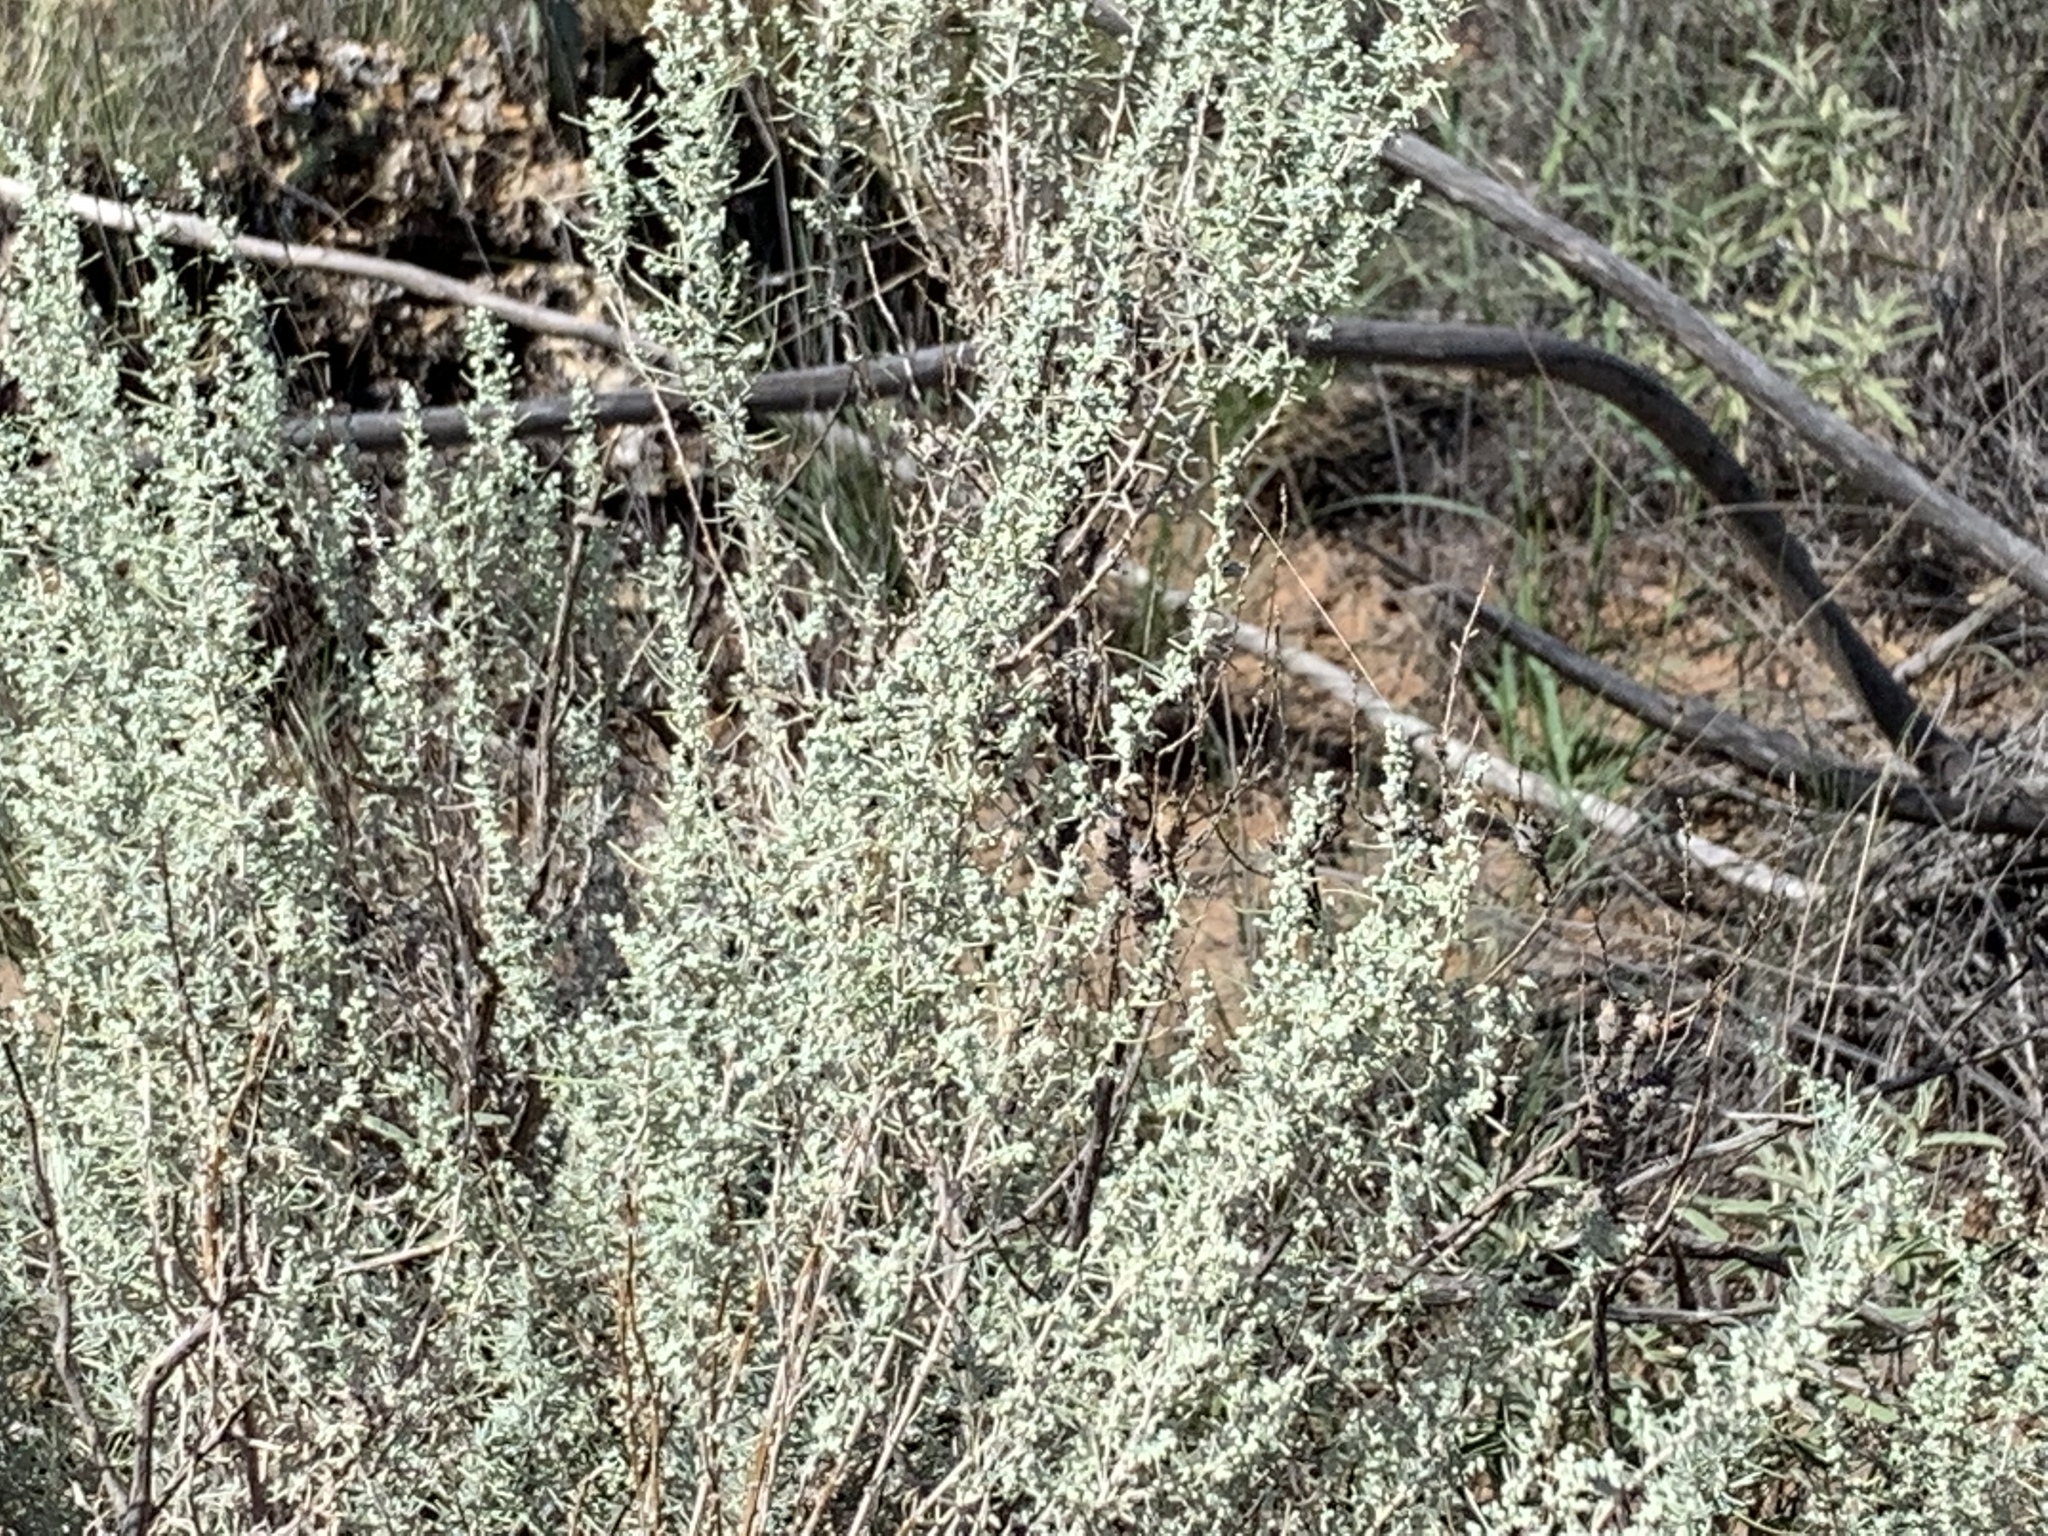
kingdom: Plantae
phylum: Tracheophyta
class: Magnoliopsida
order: Asterales
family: Asteraceae
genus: Artemisia
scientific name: Artemisia filifolia
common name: Sand-sage
